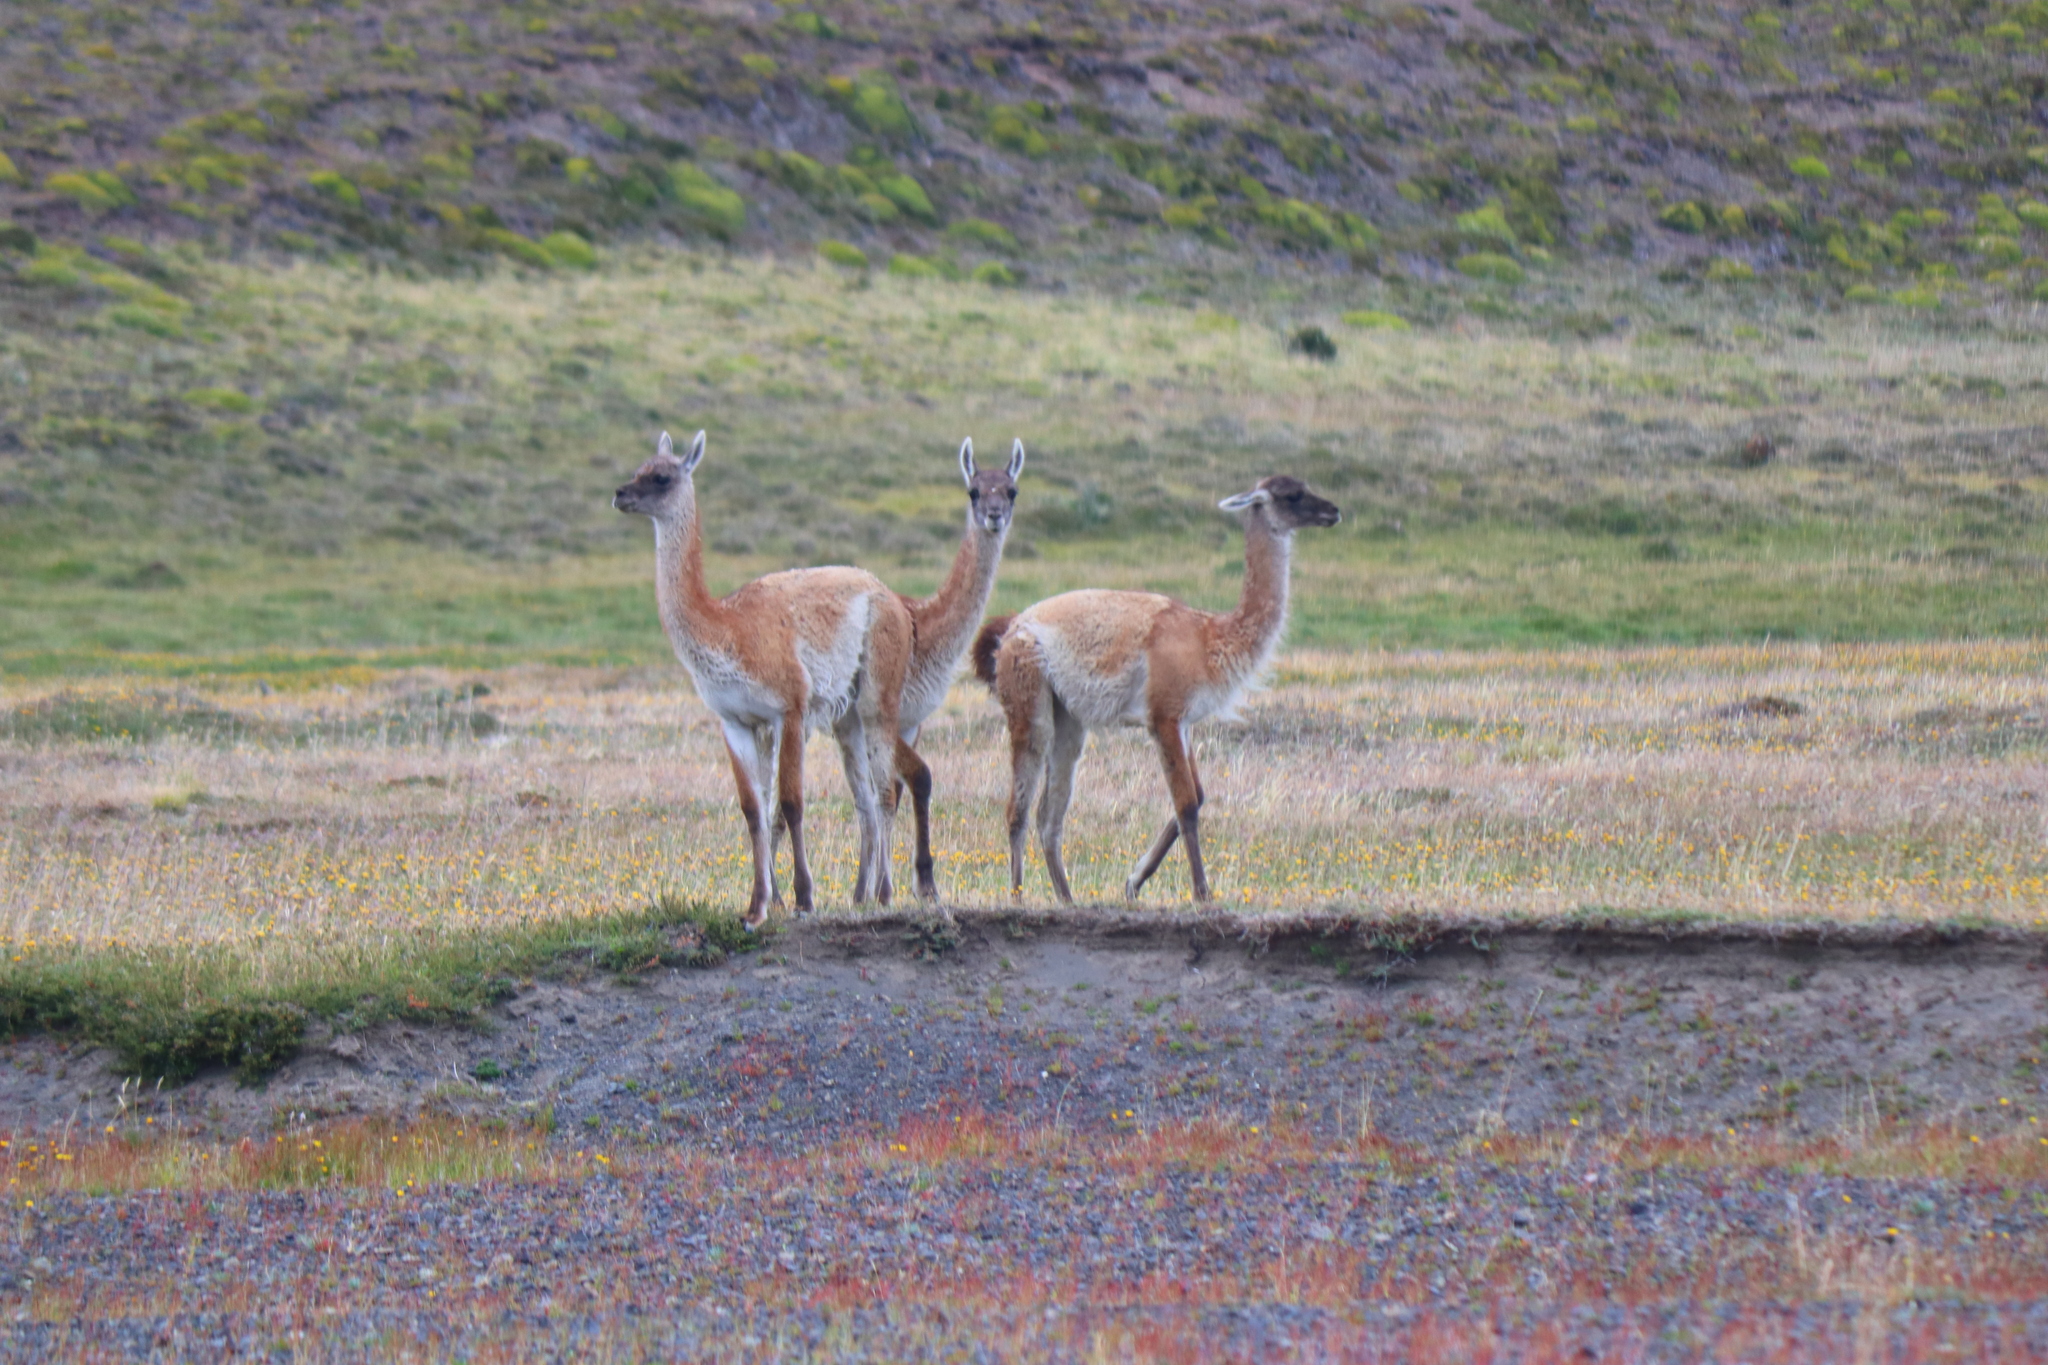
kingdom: Animalia
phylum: Chordata
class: Mammalia
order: Artiodactyla
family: Camelidae
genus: Lama
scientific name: Lama glama
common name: Llama
